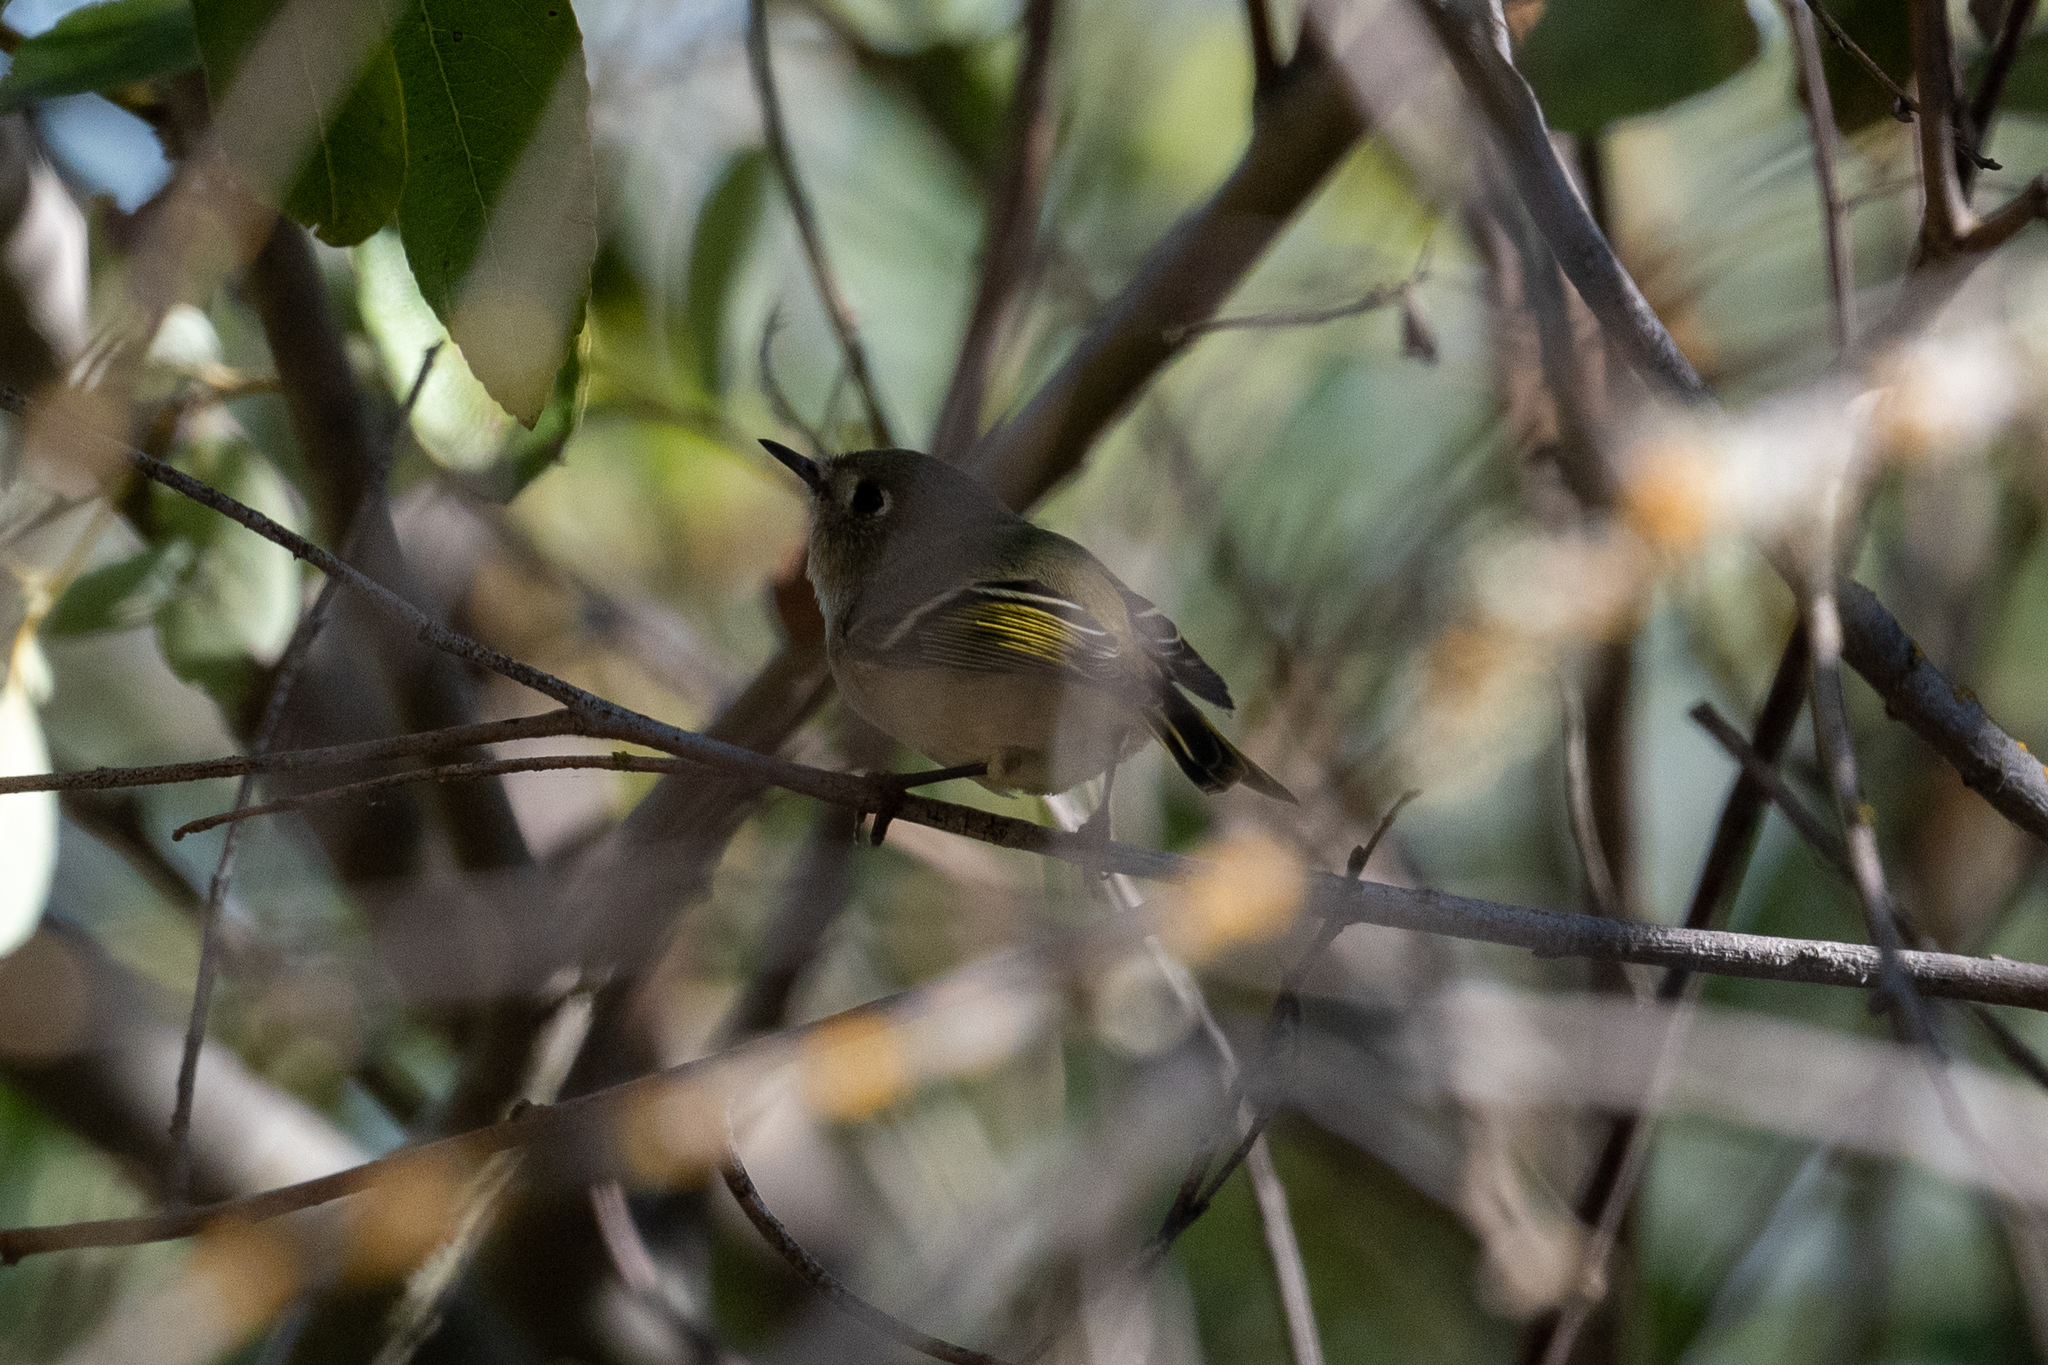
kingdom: Animalia
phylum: Chordata
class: Aves
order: Passeriformes
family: Regulidae
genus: Regulus
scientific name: Regulus calendula
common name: Ruby-crowned kinglet
